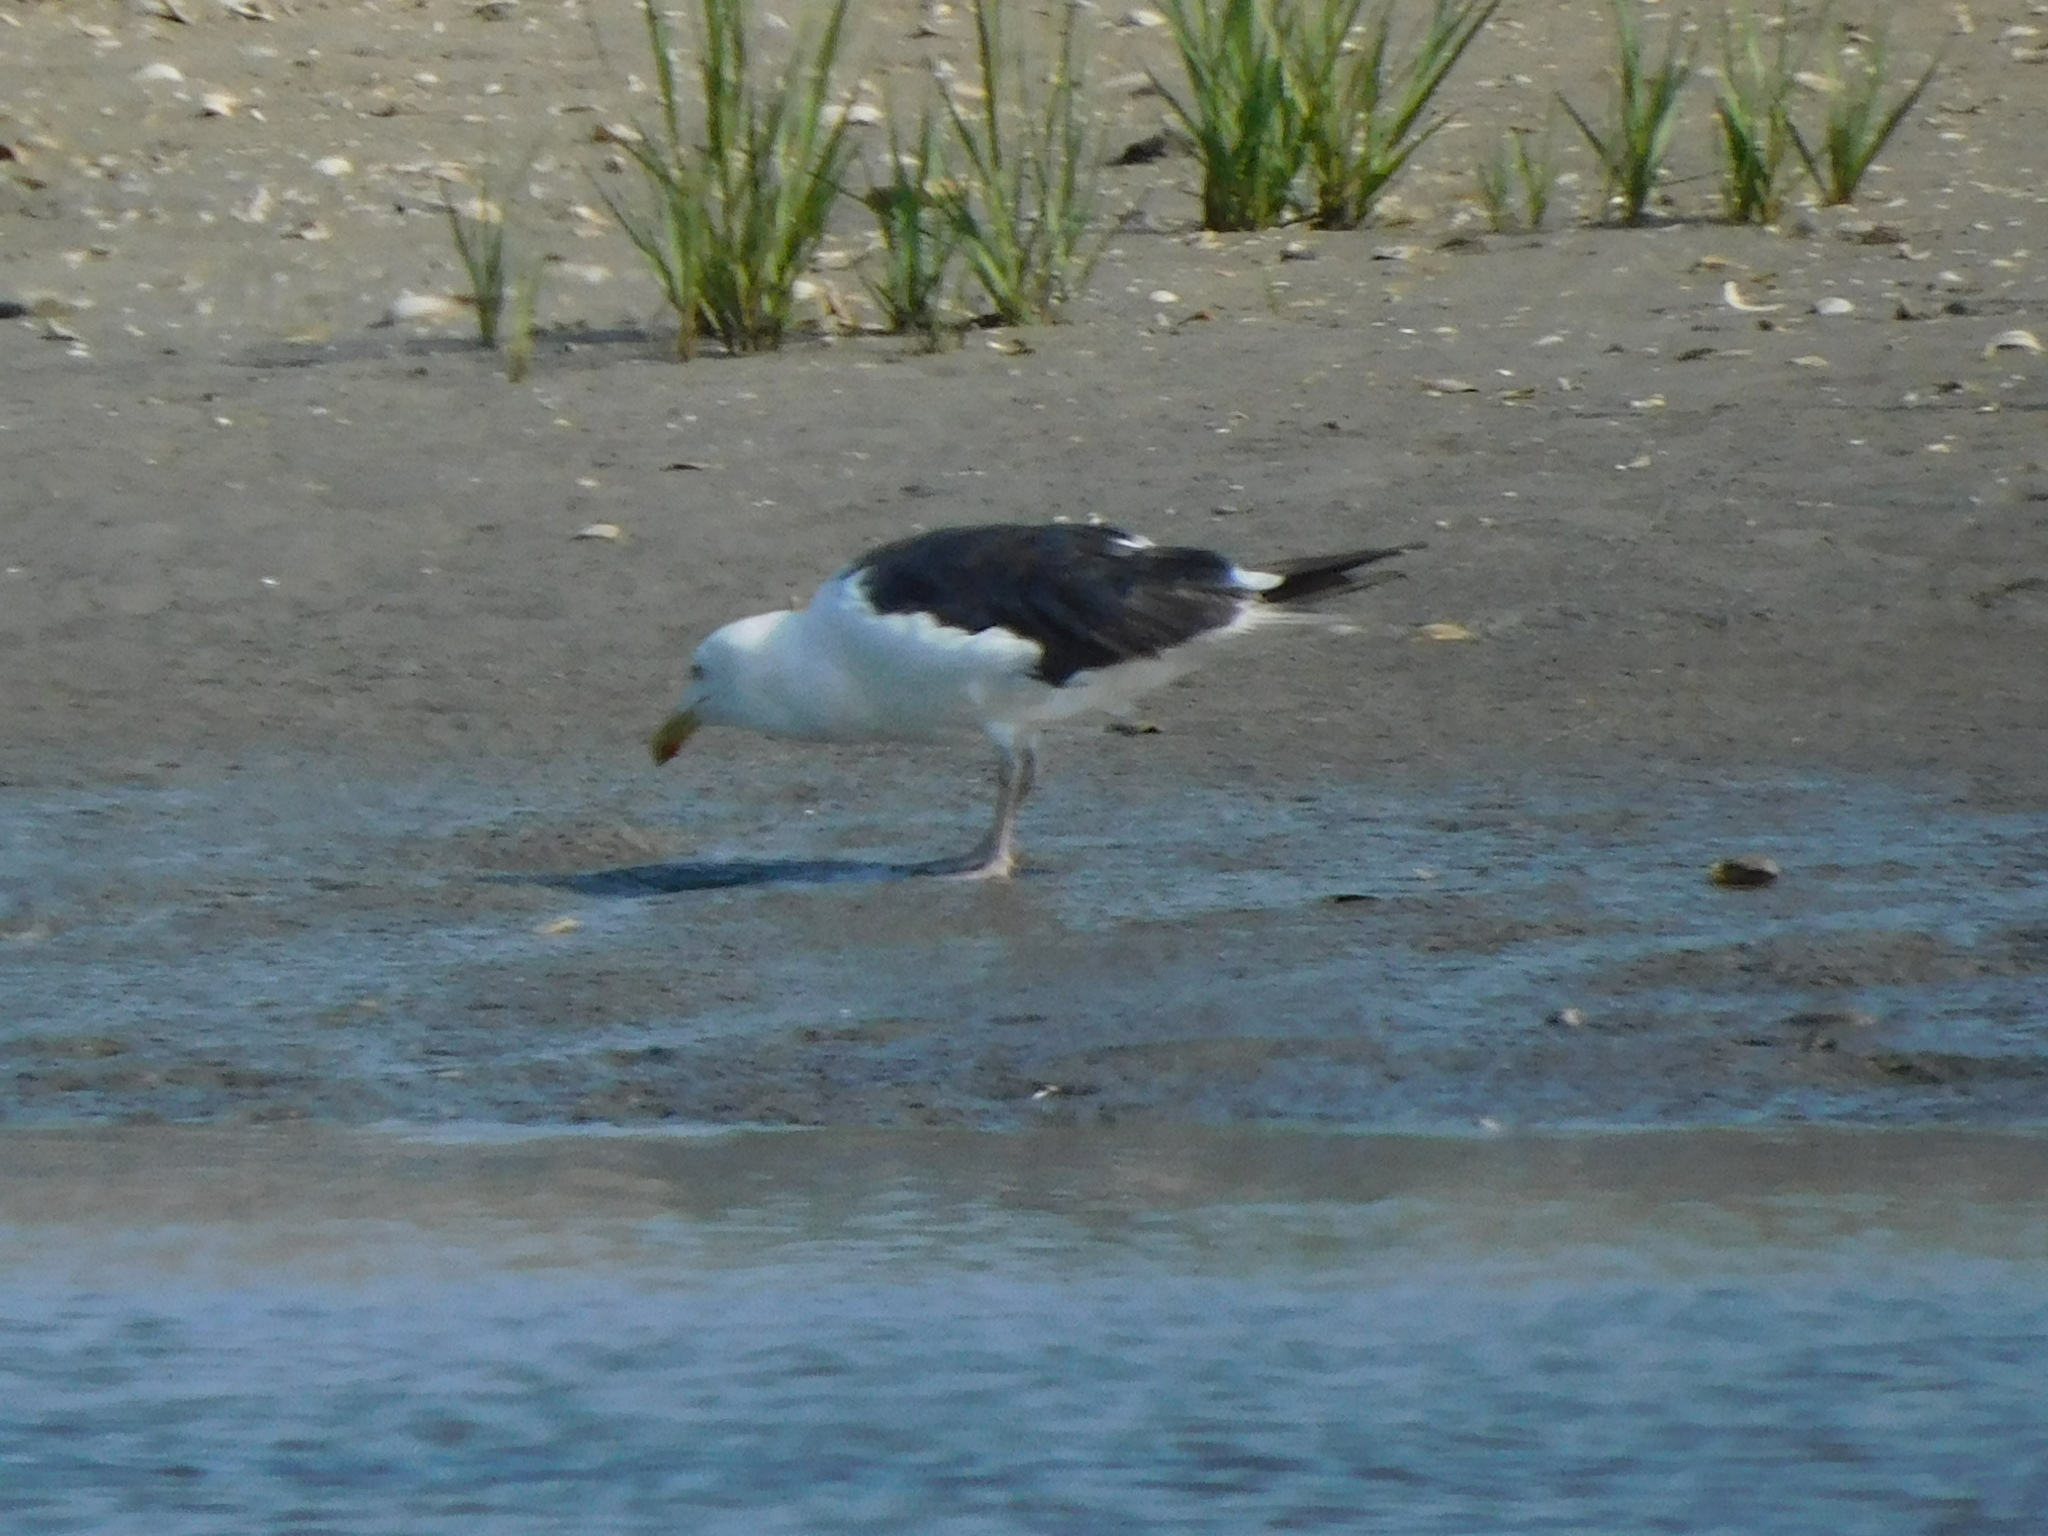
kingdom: Animalia
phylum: Chordata
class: Aves
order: Charadriiformes
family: Laridae
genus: Larus
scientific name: Larus marinus
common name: Great black-backed gull
